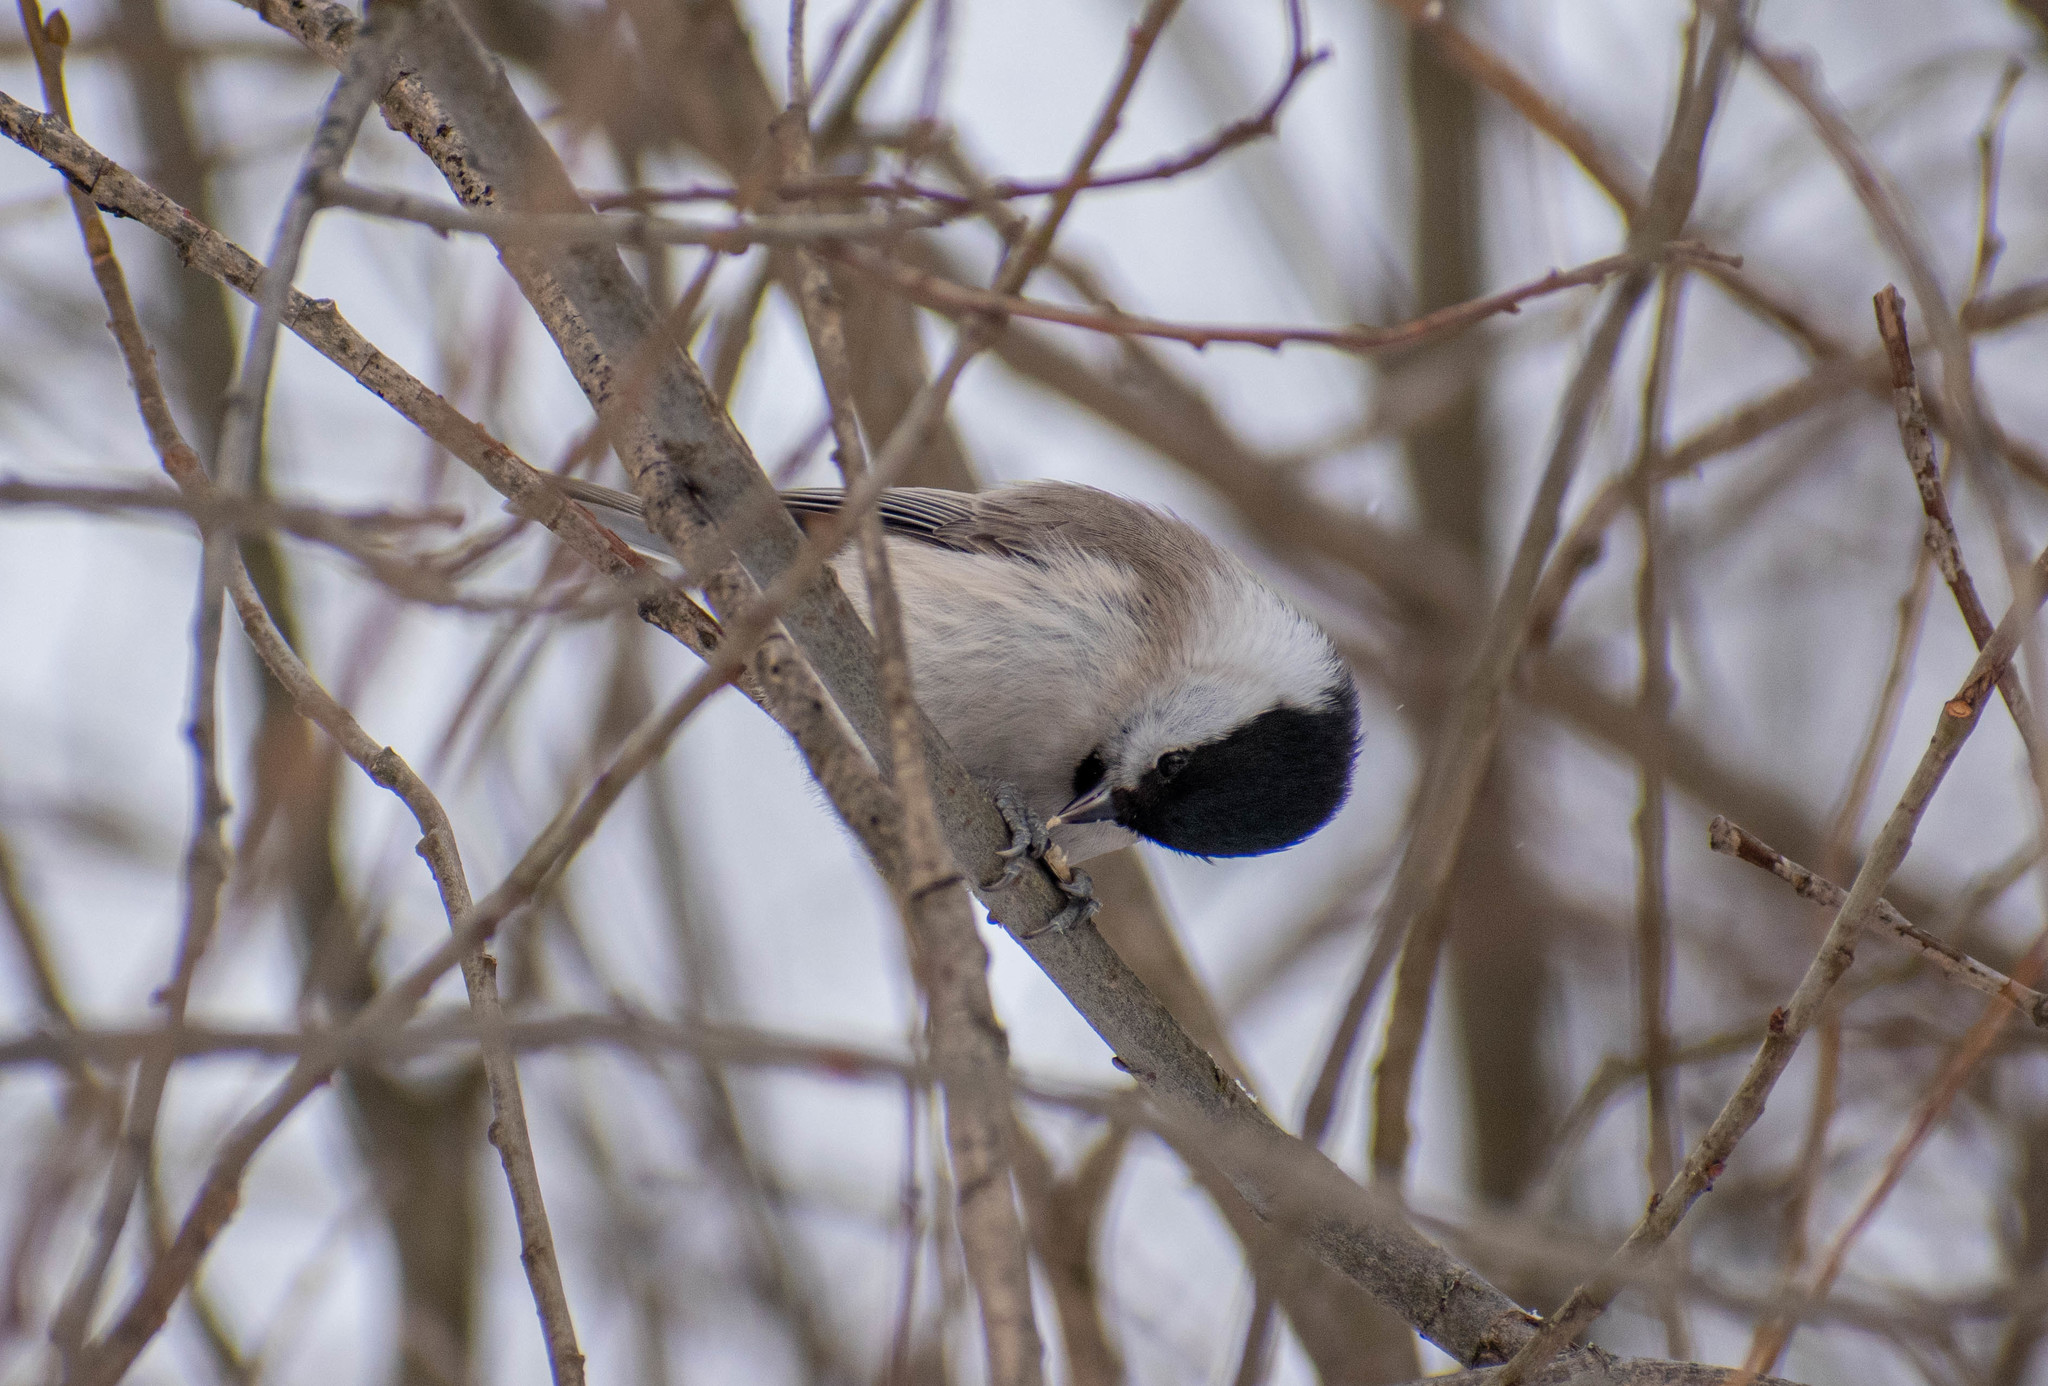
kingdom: Animalia
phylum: Chordata
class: Aves
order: Passeriformes
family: Paridae
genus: Poecile
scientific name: Poecile palustris
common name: Marsh tit
